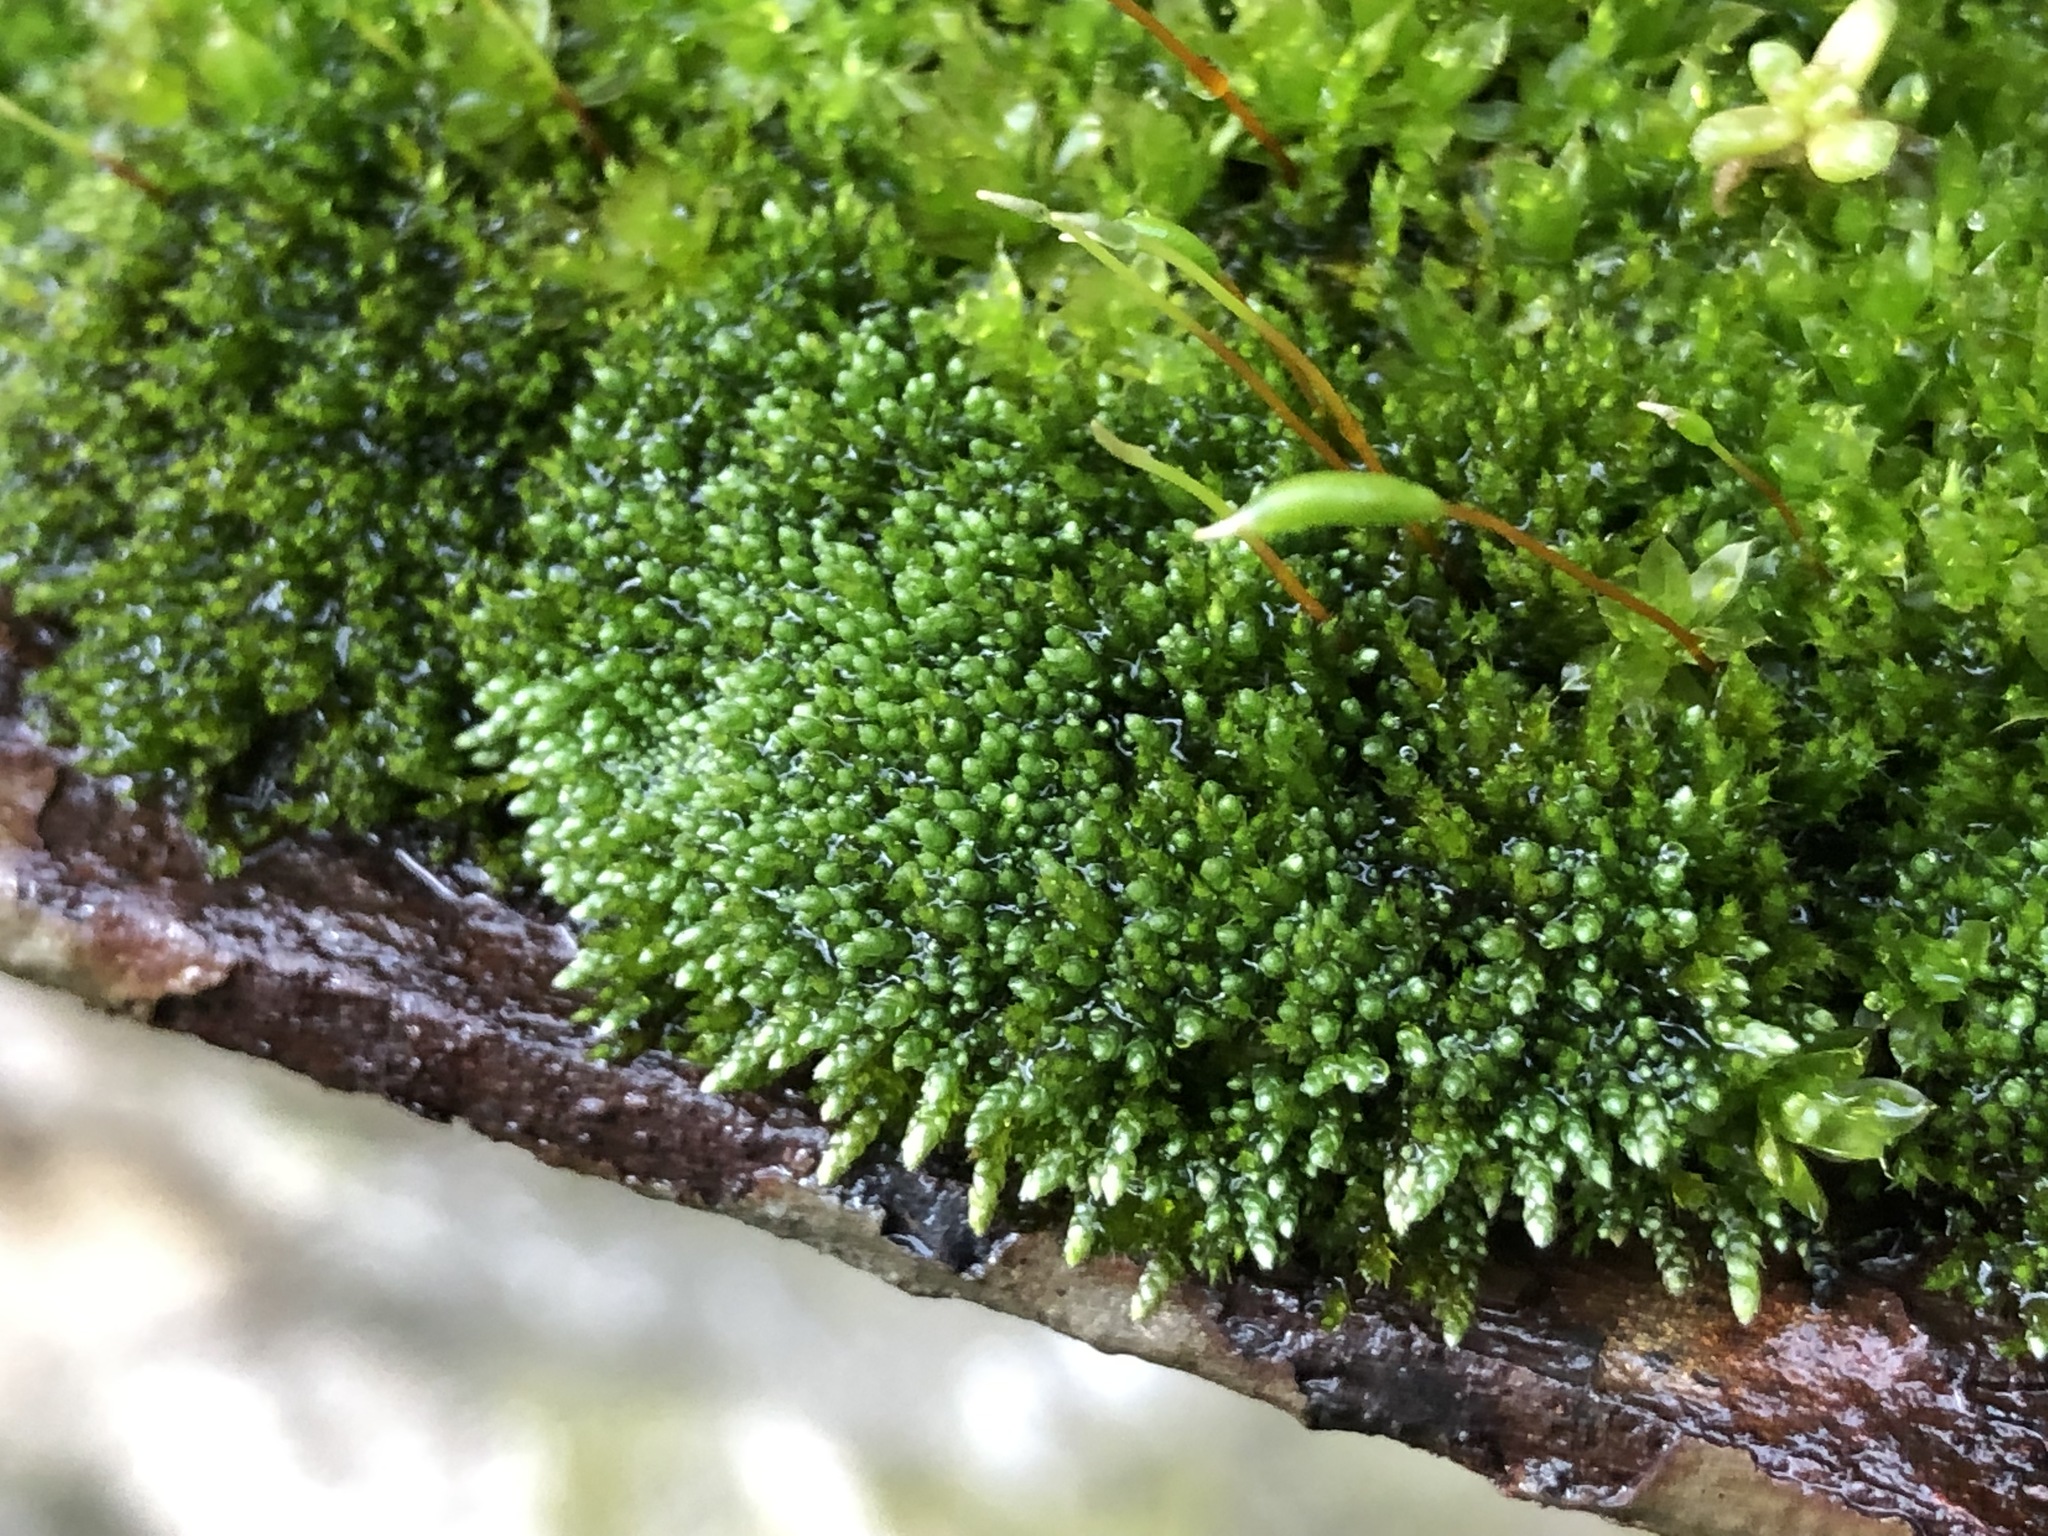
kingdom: Plantae
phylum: Bryophyta
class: Bryopsida
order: Bryales
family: Bryaceae
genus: Bryum
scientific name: Bryum argenteum
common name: Silver-moss
